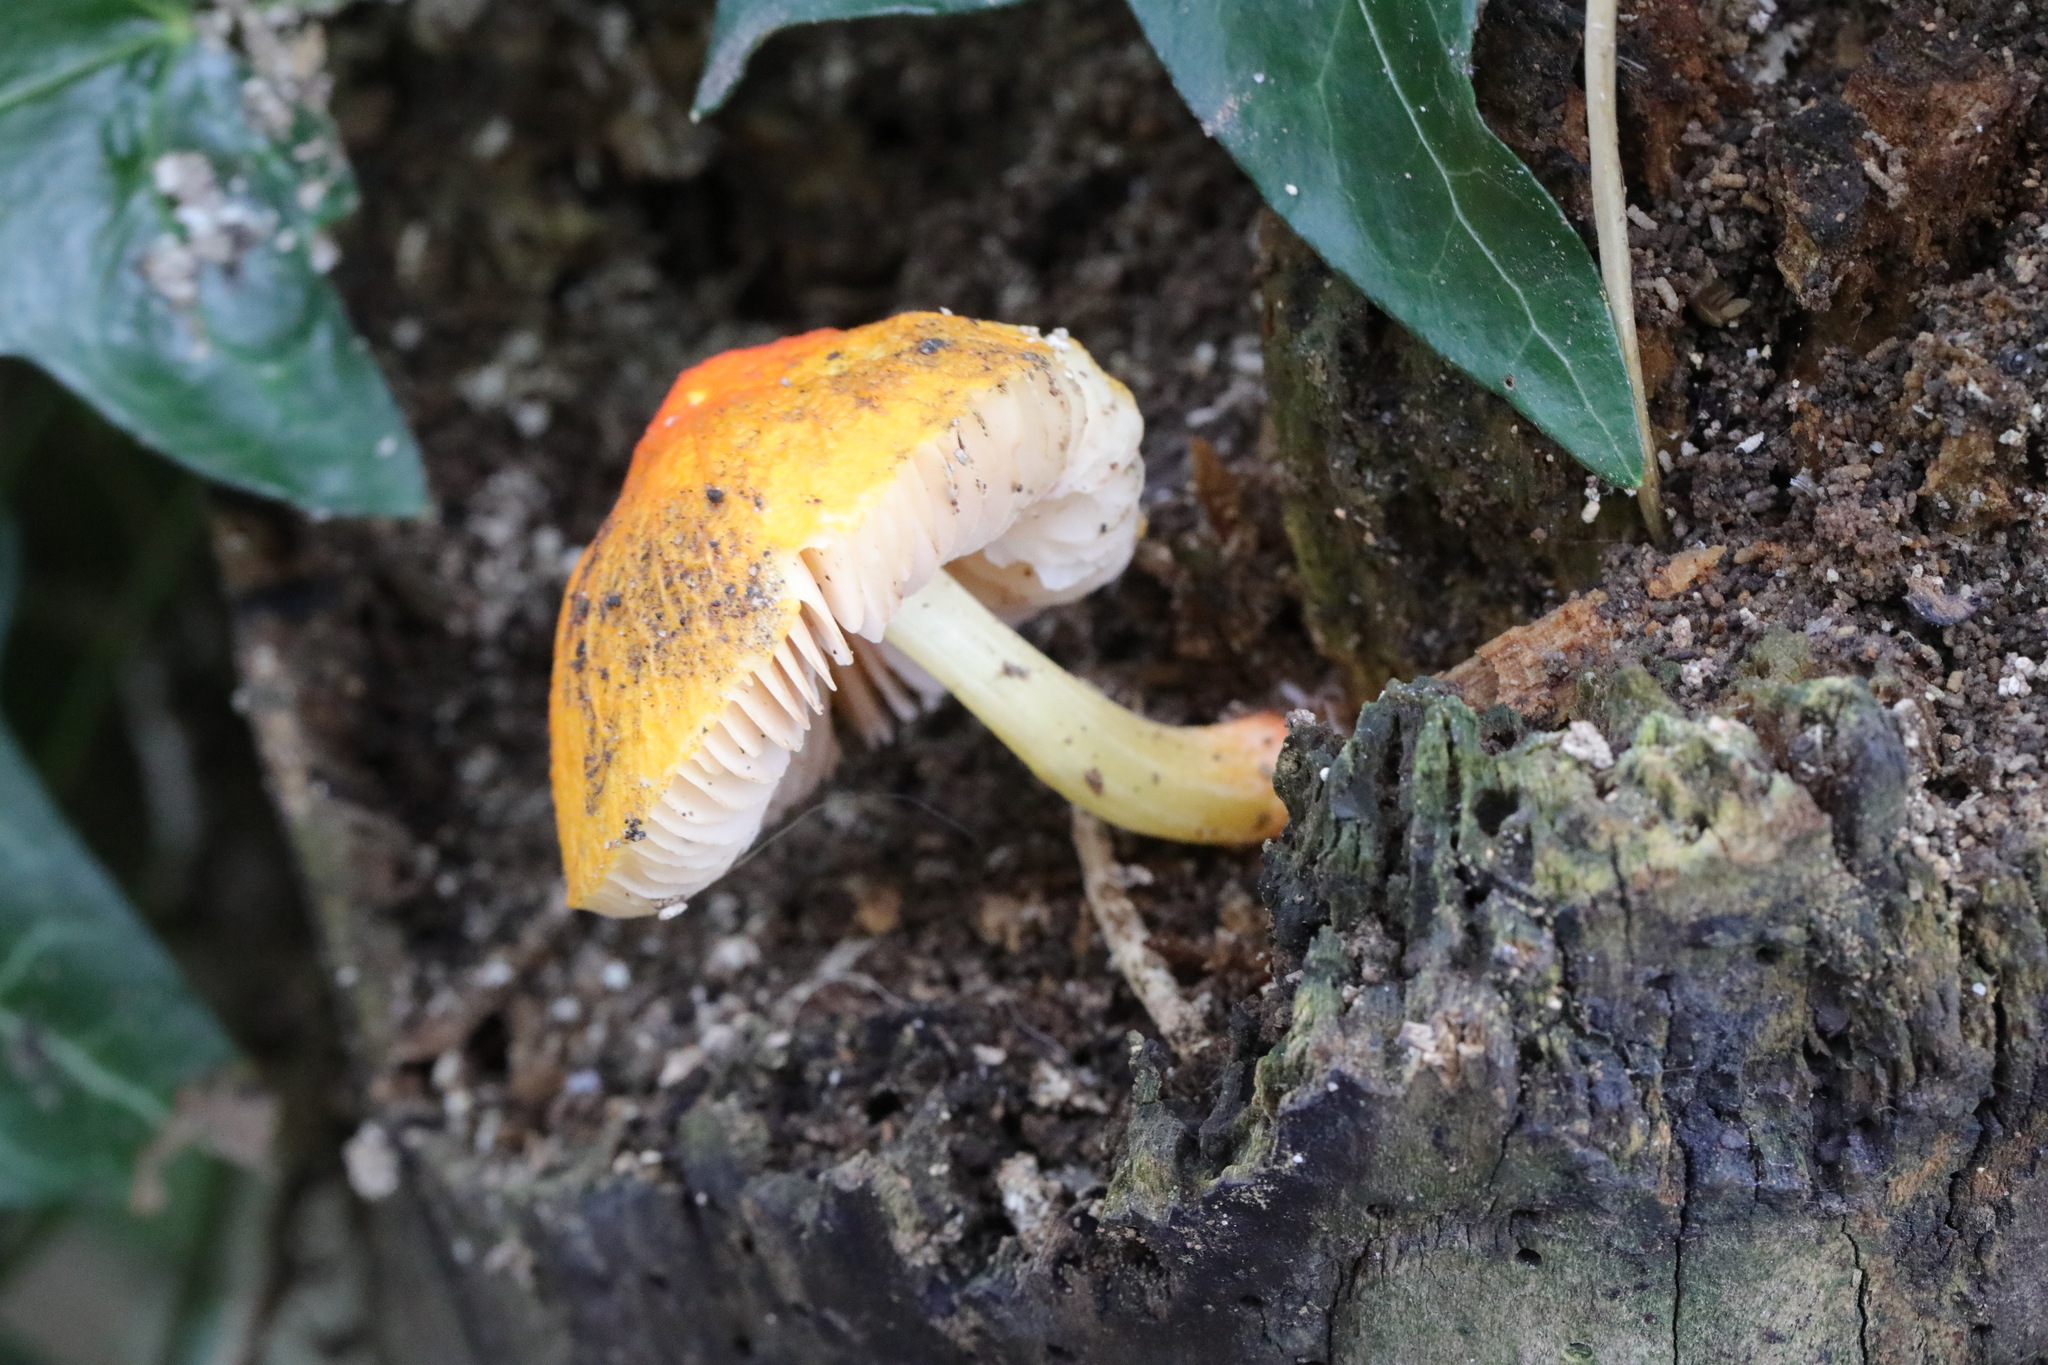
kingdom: Fungi
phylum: Basidiomycota
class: Agaricomycetes
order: Agaricales
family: Pluteaceae
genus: Pluteus
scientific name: Pluteus aurantiorugosus
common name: Flame shield
